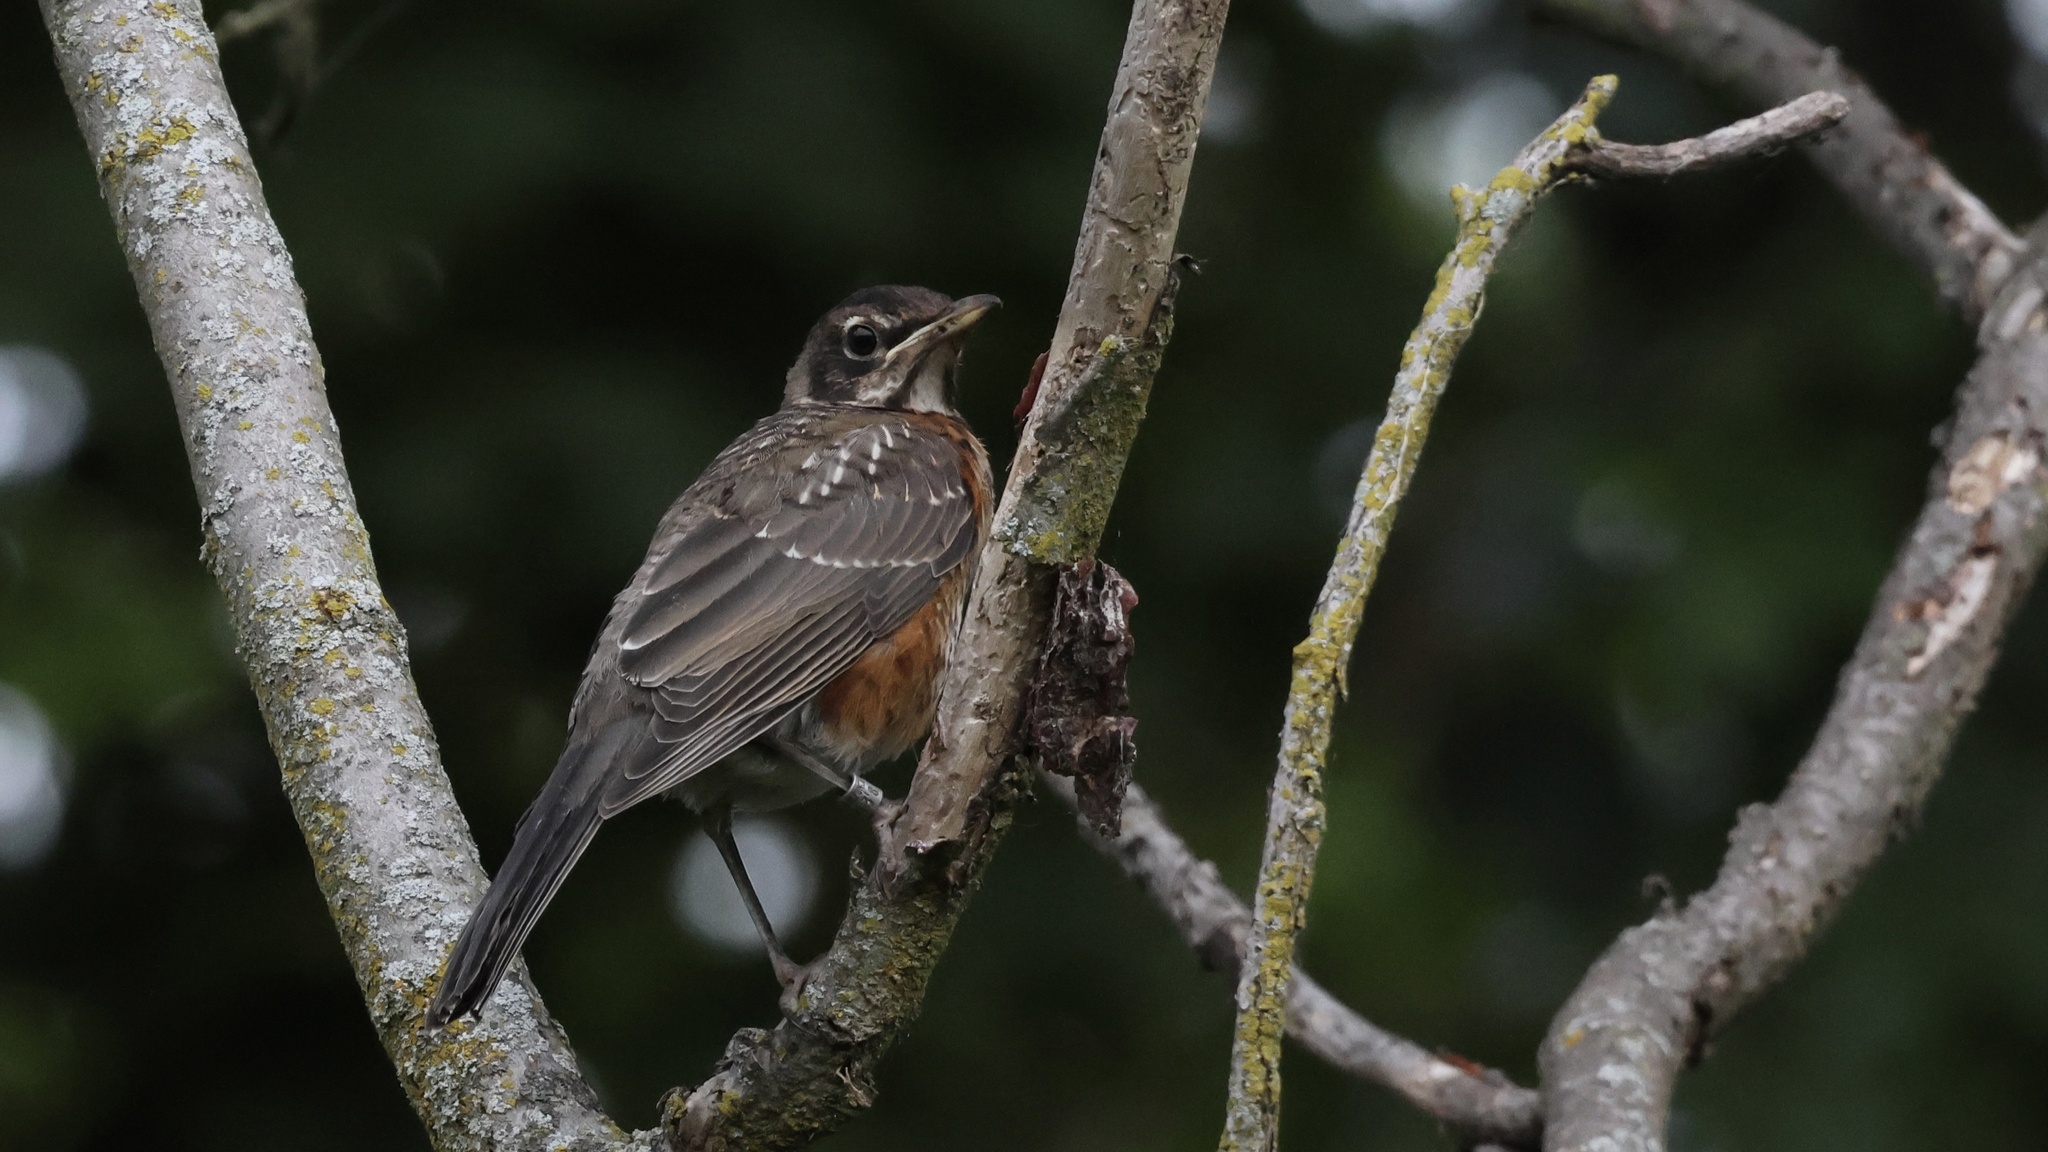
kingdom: Animalia
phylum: Chordata
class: Aves
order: Passeriformes
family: Turdidae
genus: Turdus
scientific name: Turdus migratorius
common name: American robin
